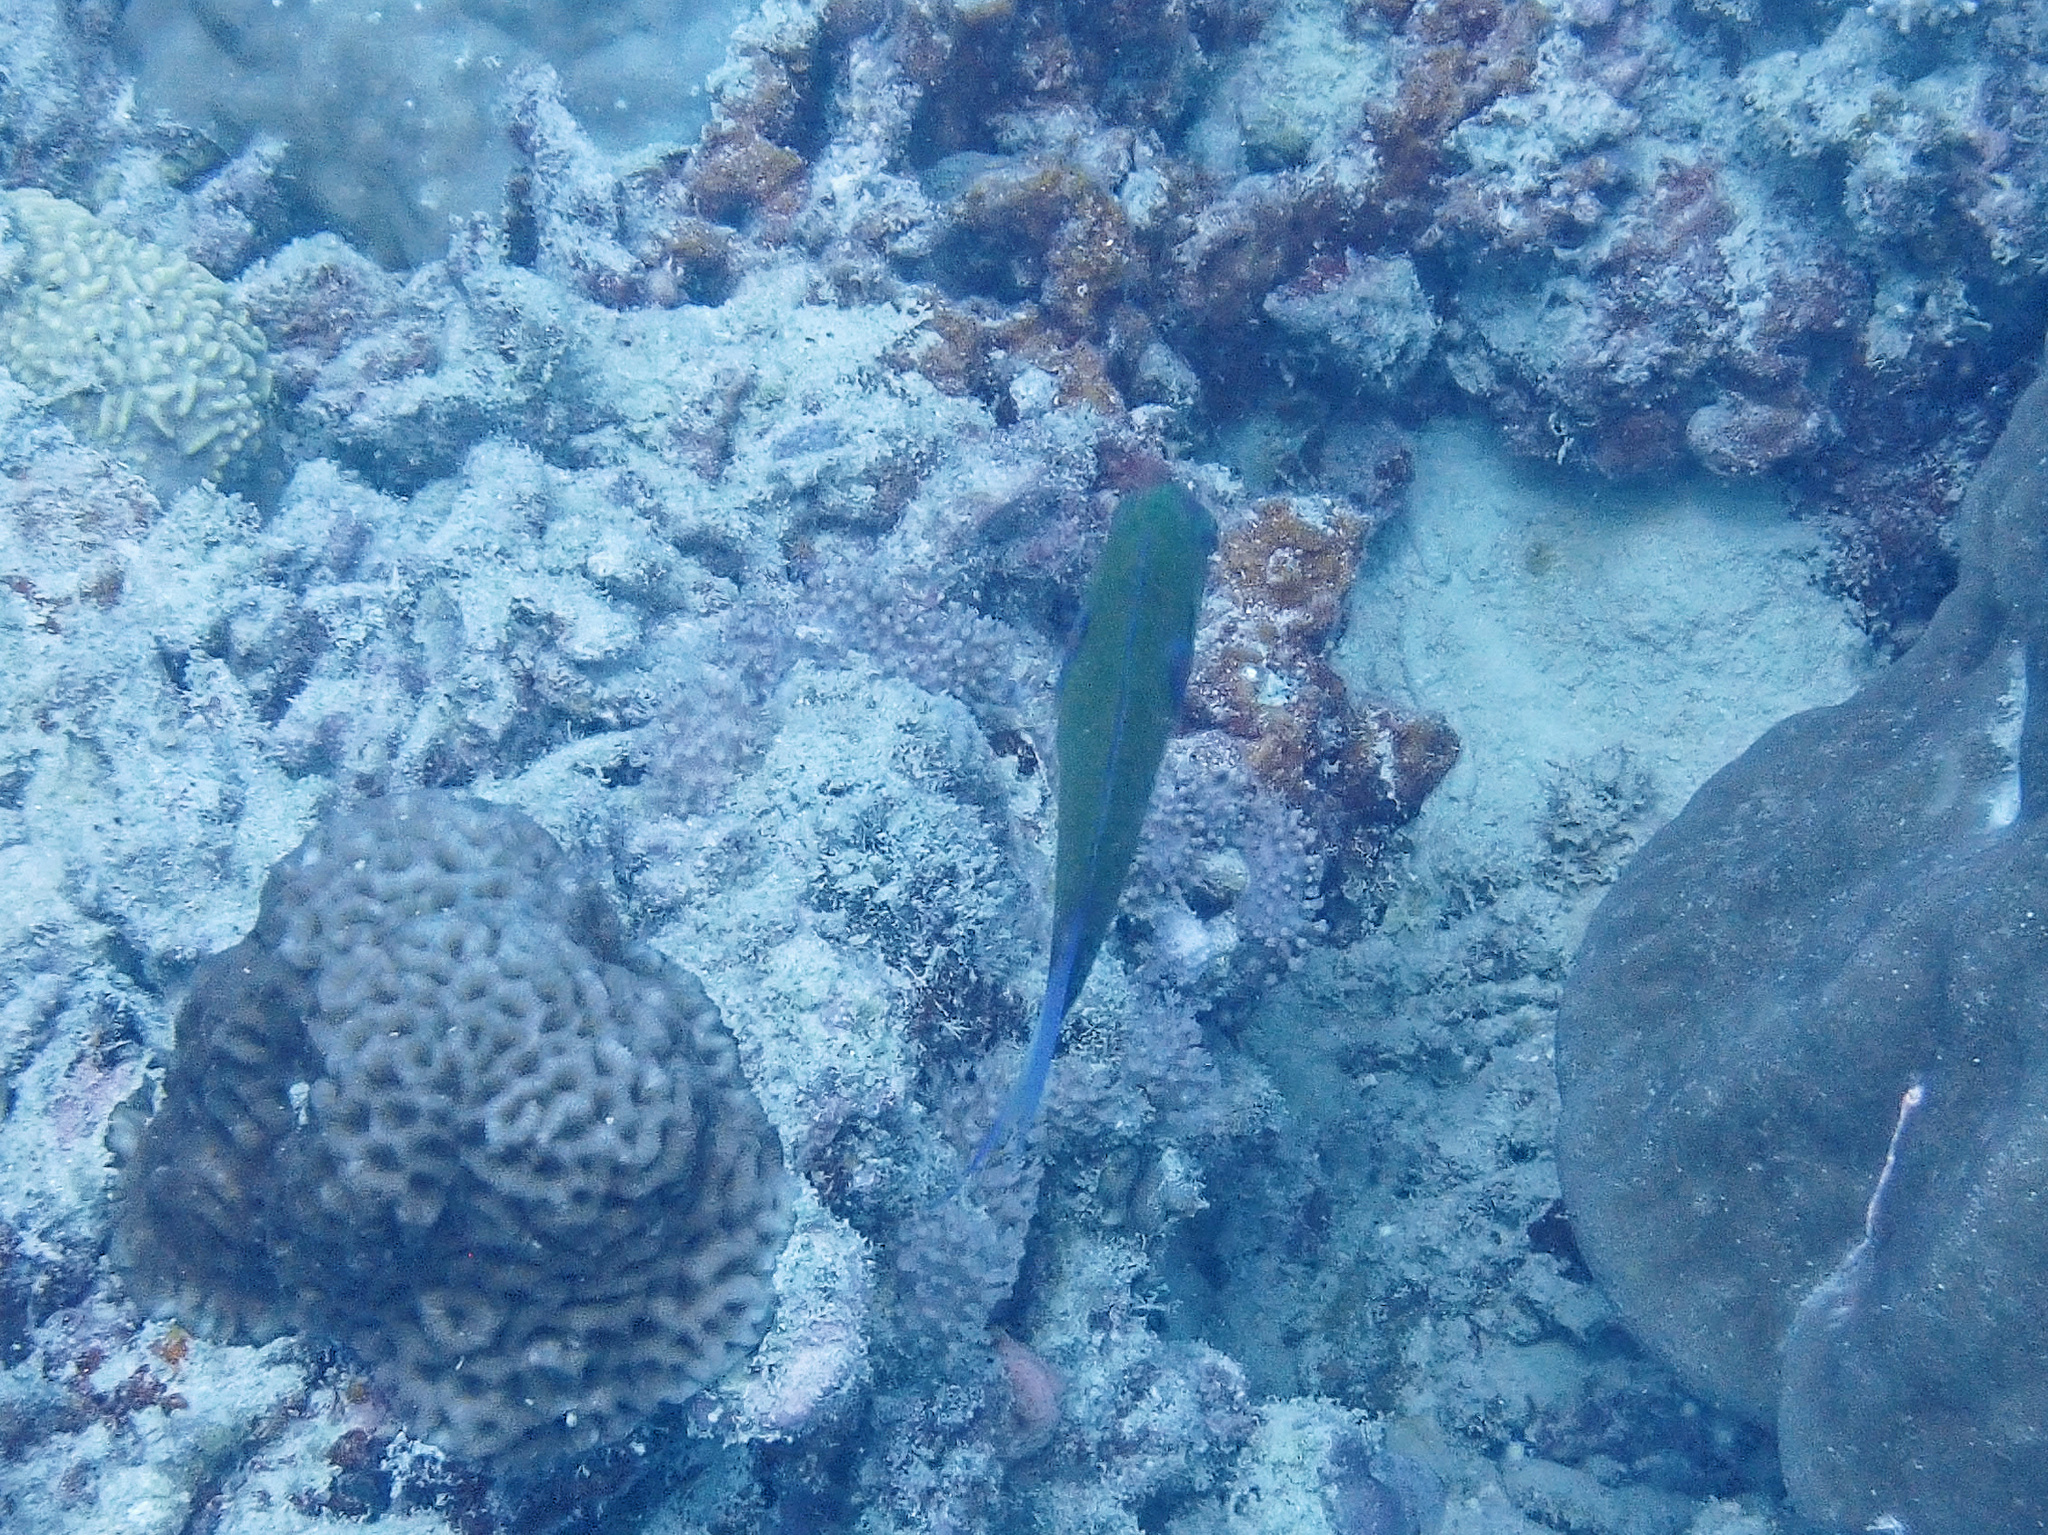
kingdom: Animalia
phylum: Chordata
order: Perciformes
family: Labridae
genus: Thalassoma
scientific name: Thalassoma lunare
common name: Blue wrasse
